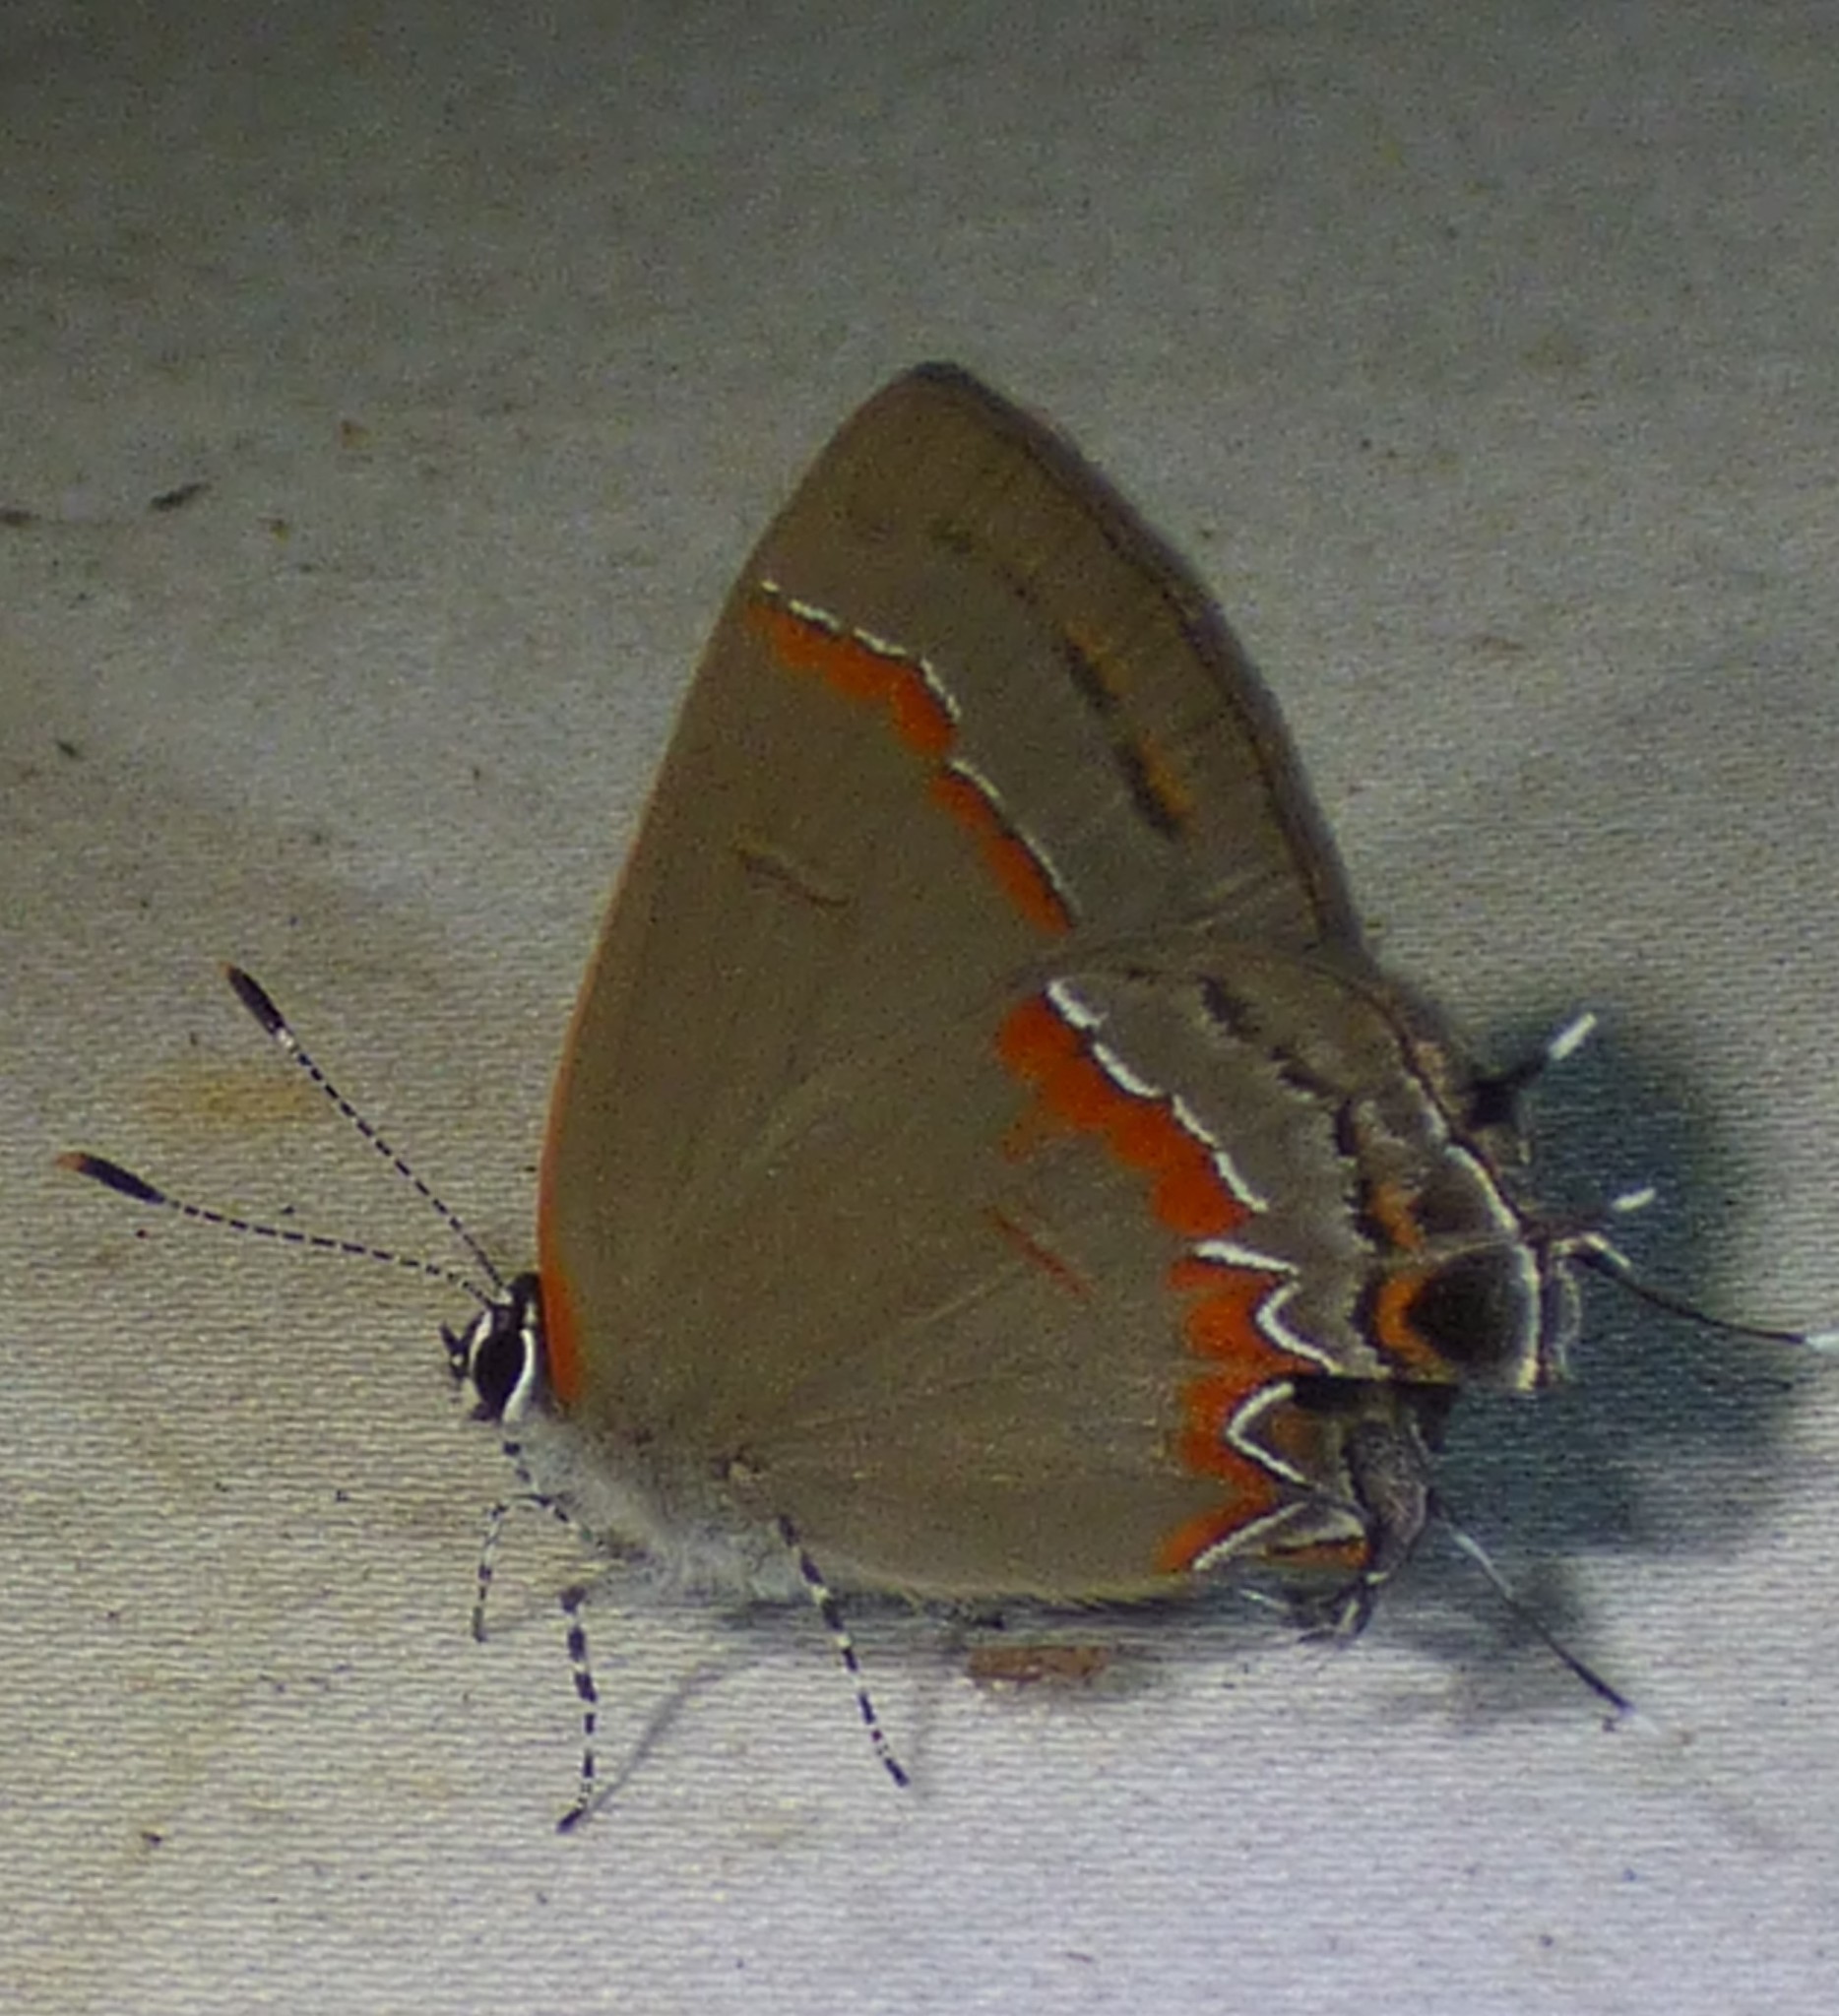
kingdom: Animalia
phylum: Arthropoda
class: Insecta
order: Lepidoptera
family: Lycaenidae
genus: Calycopis
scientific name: Calycopis cecrops
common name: Red-banded hairstreak
